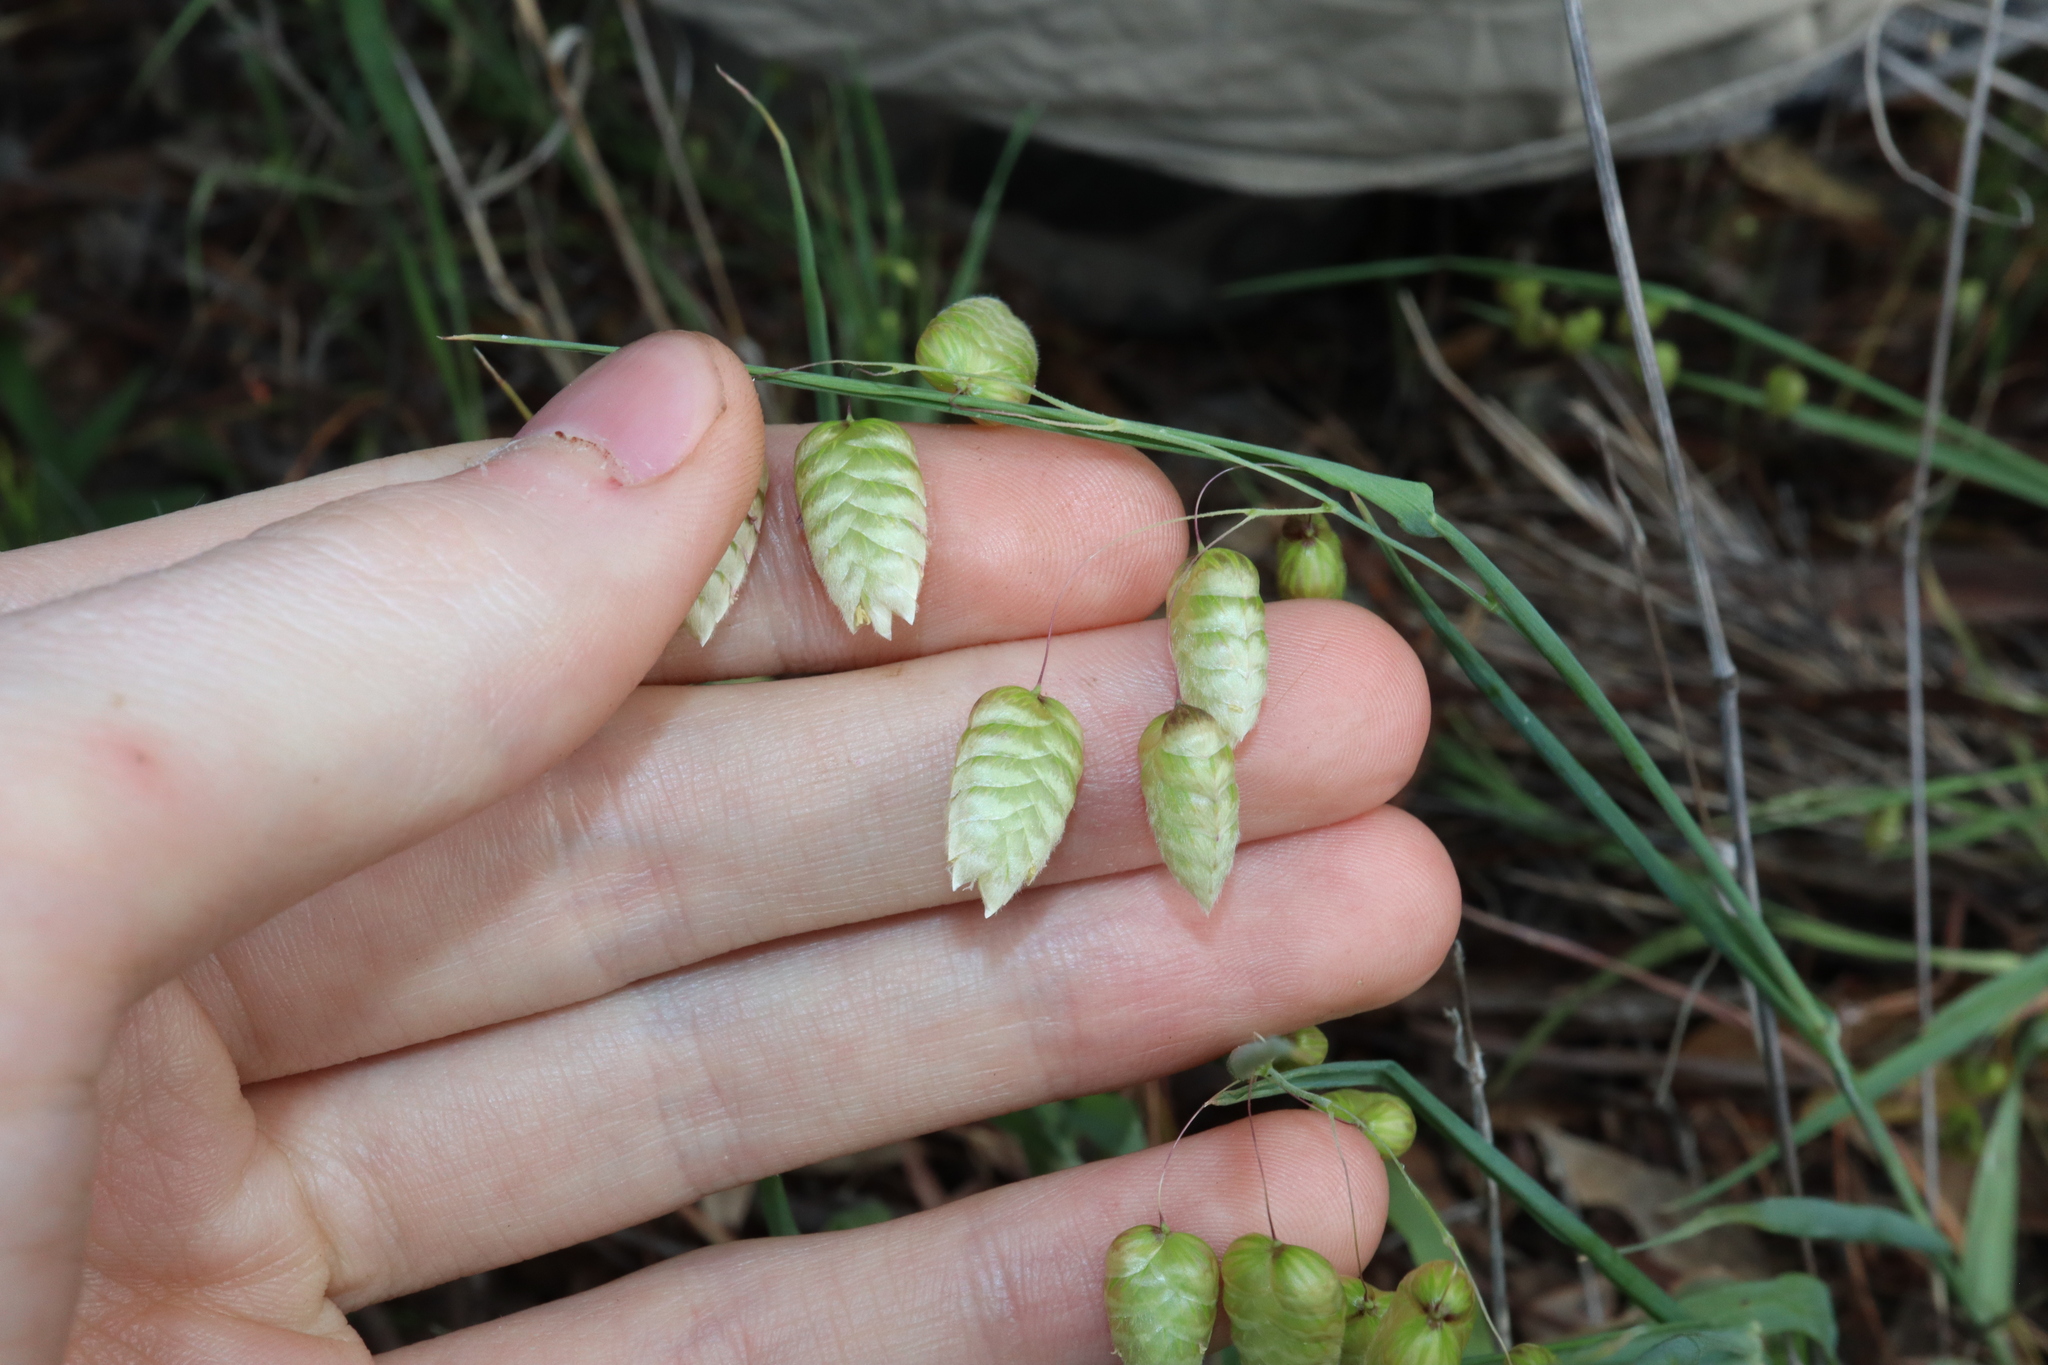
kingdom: Plantae
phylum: Tracheophyta
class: Liliopsida
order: Poales
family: Poaceae
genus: Briza
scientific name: Briza maxima
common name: Big quakinggrass
